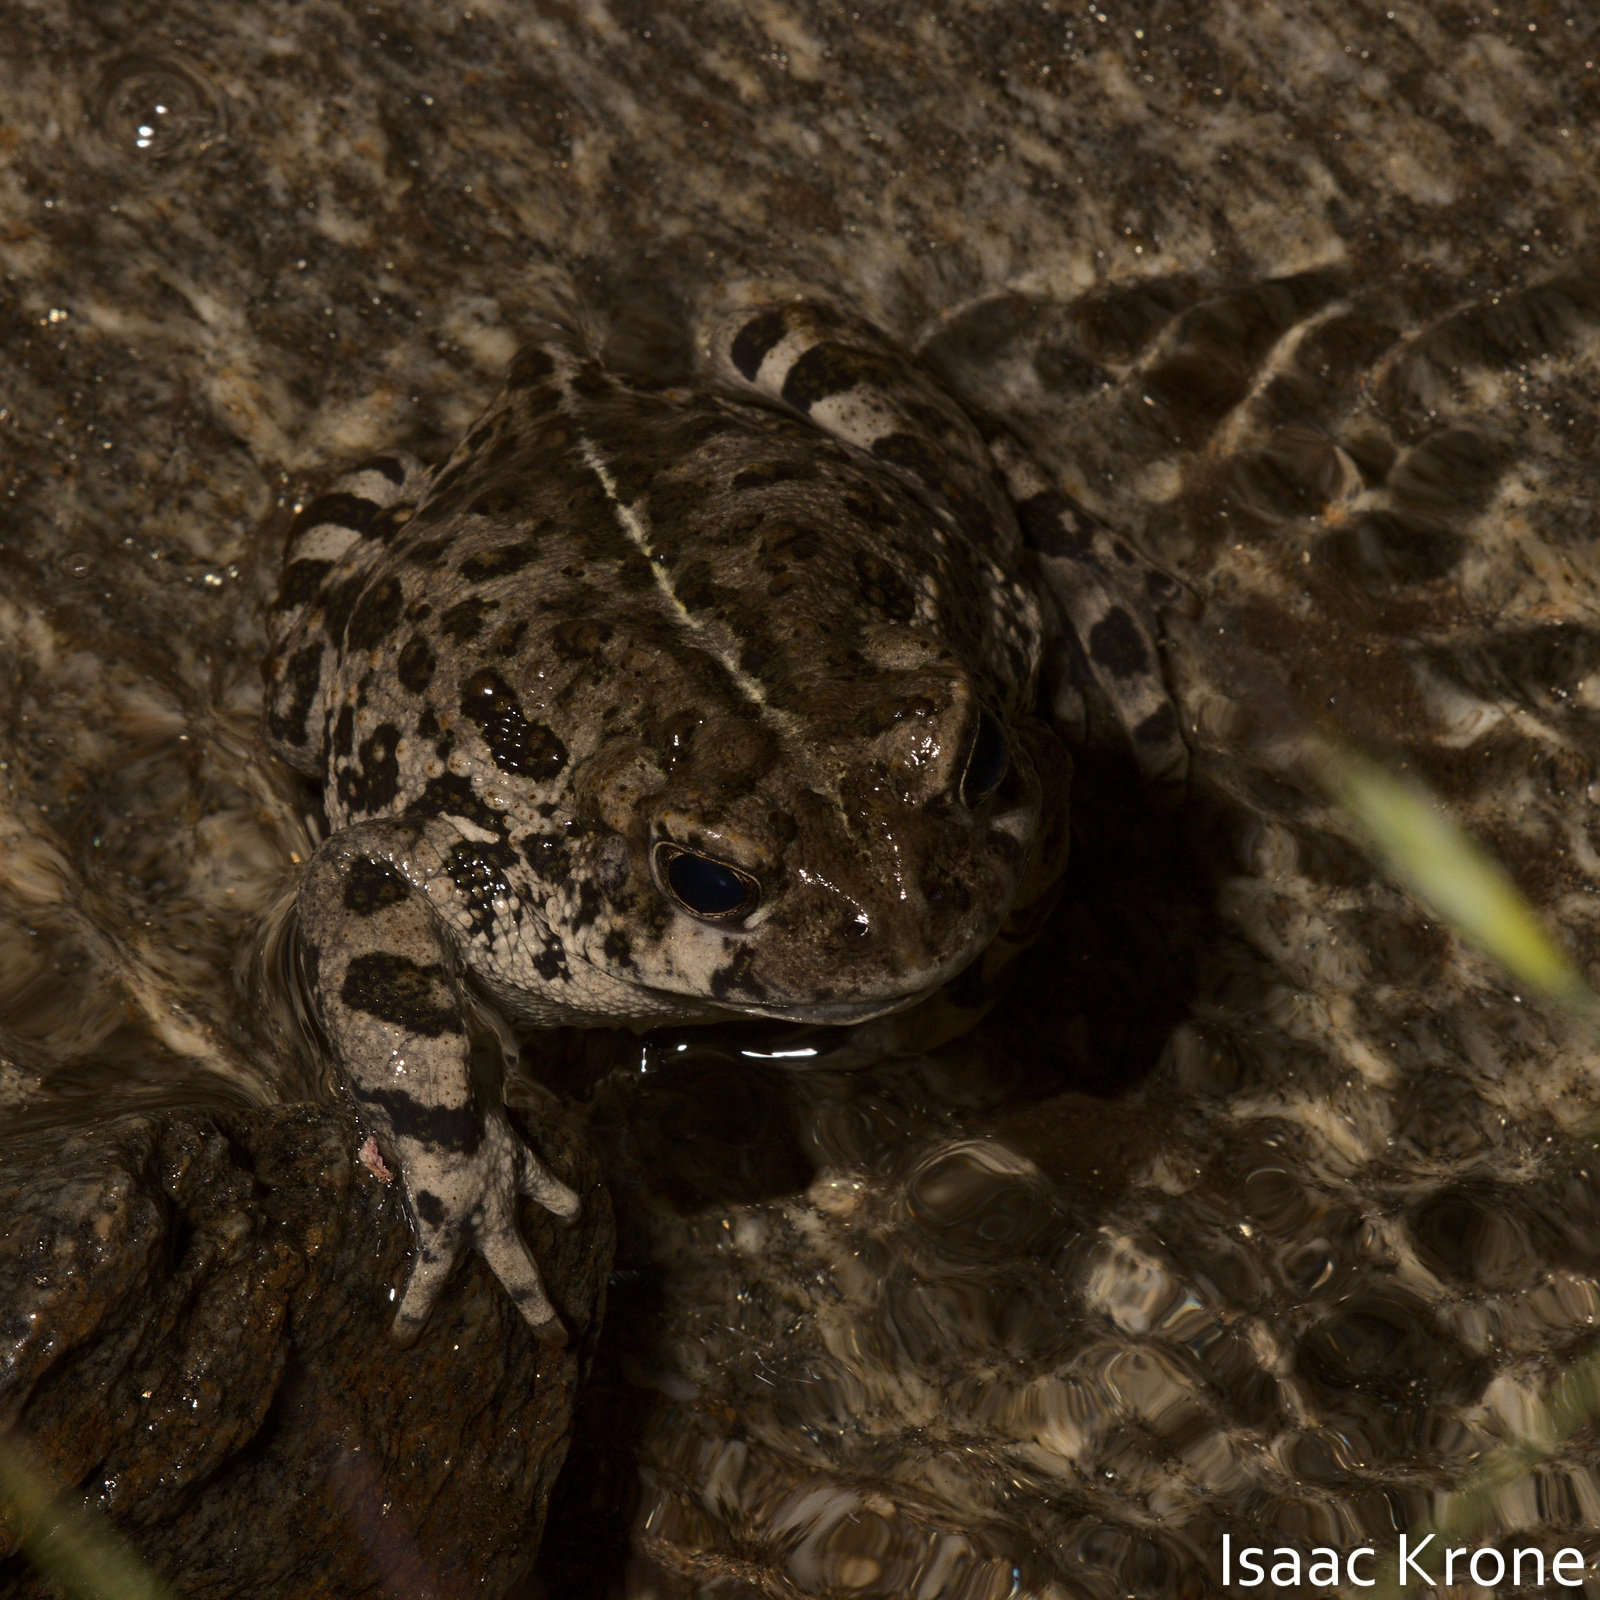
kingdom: Animalia
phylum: Chordata
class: Amphibia
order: Anura
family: Bufonidae
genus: Anaxyrus
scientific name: Anaxyrus boreas
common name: Western toad
